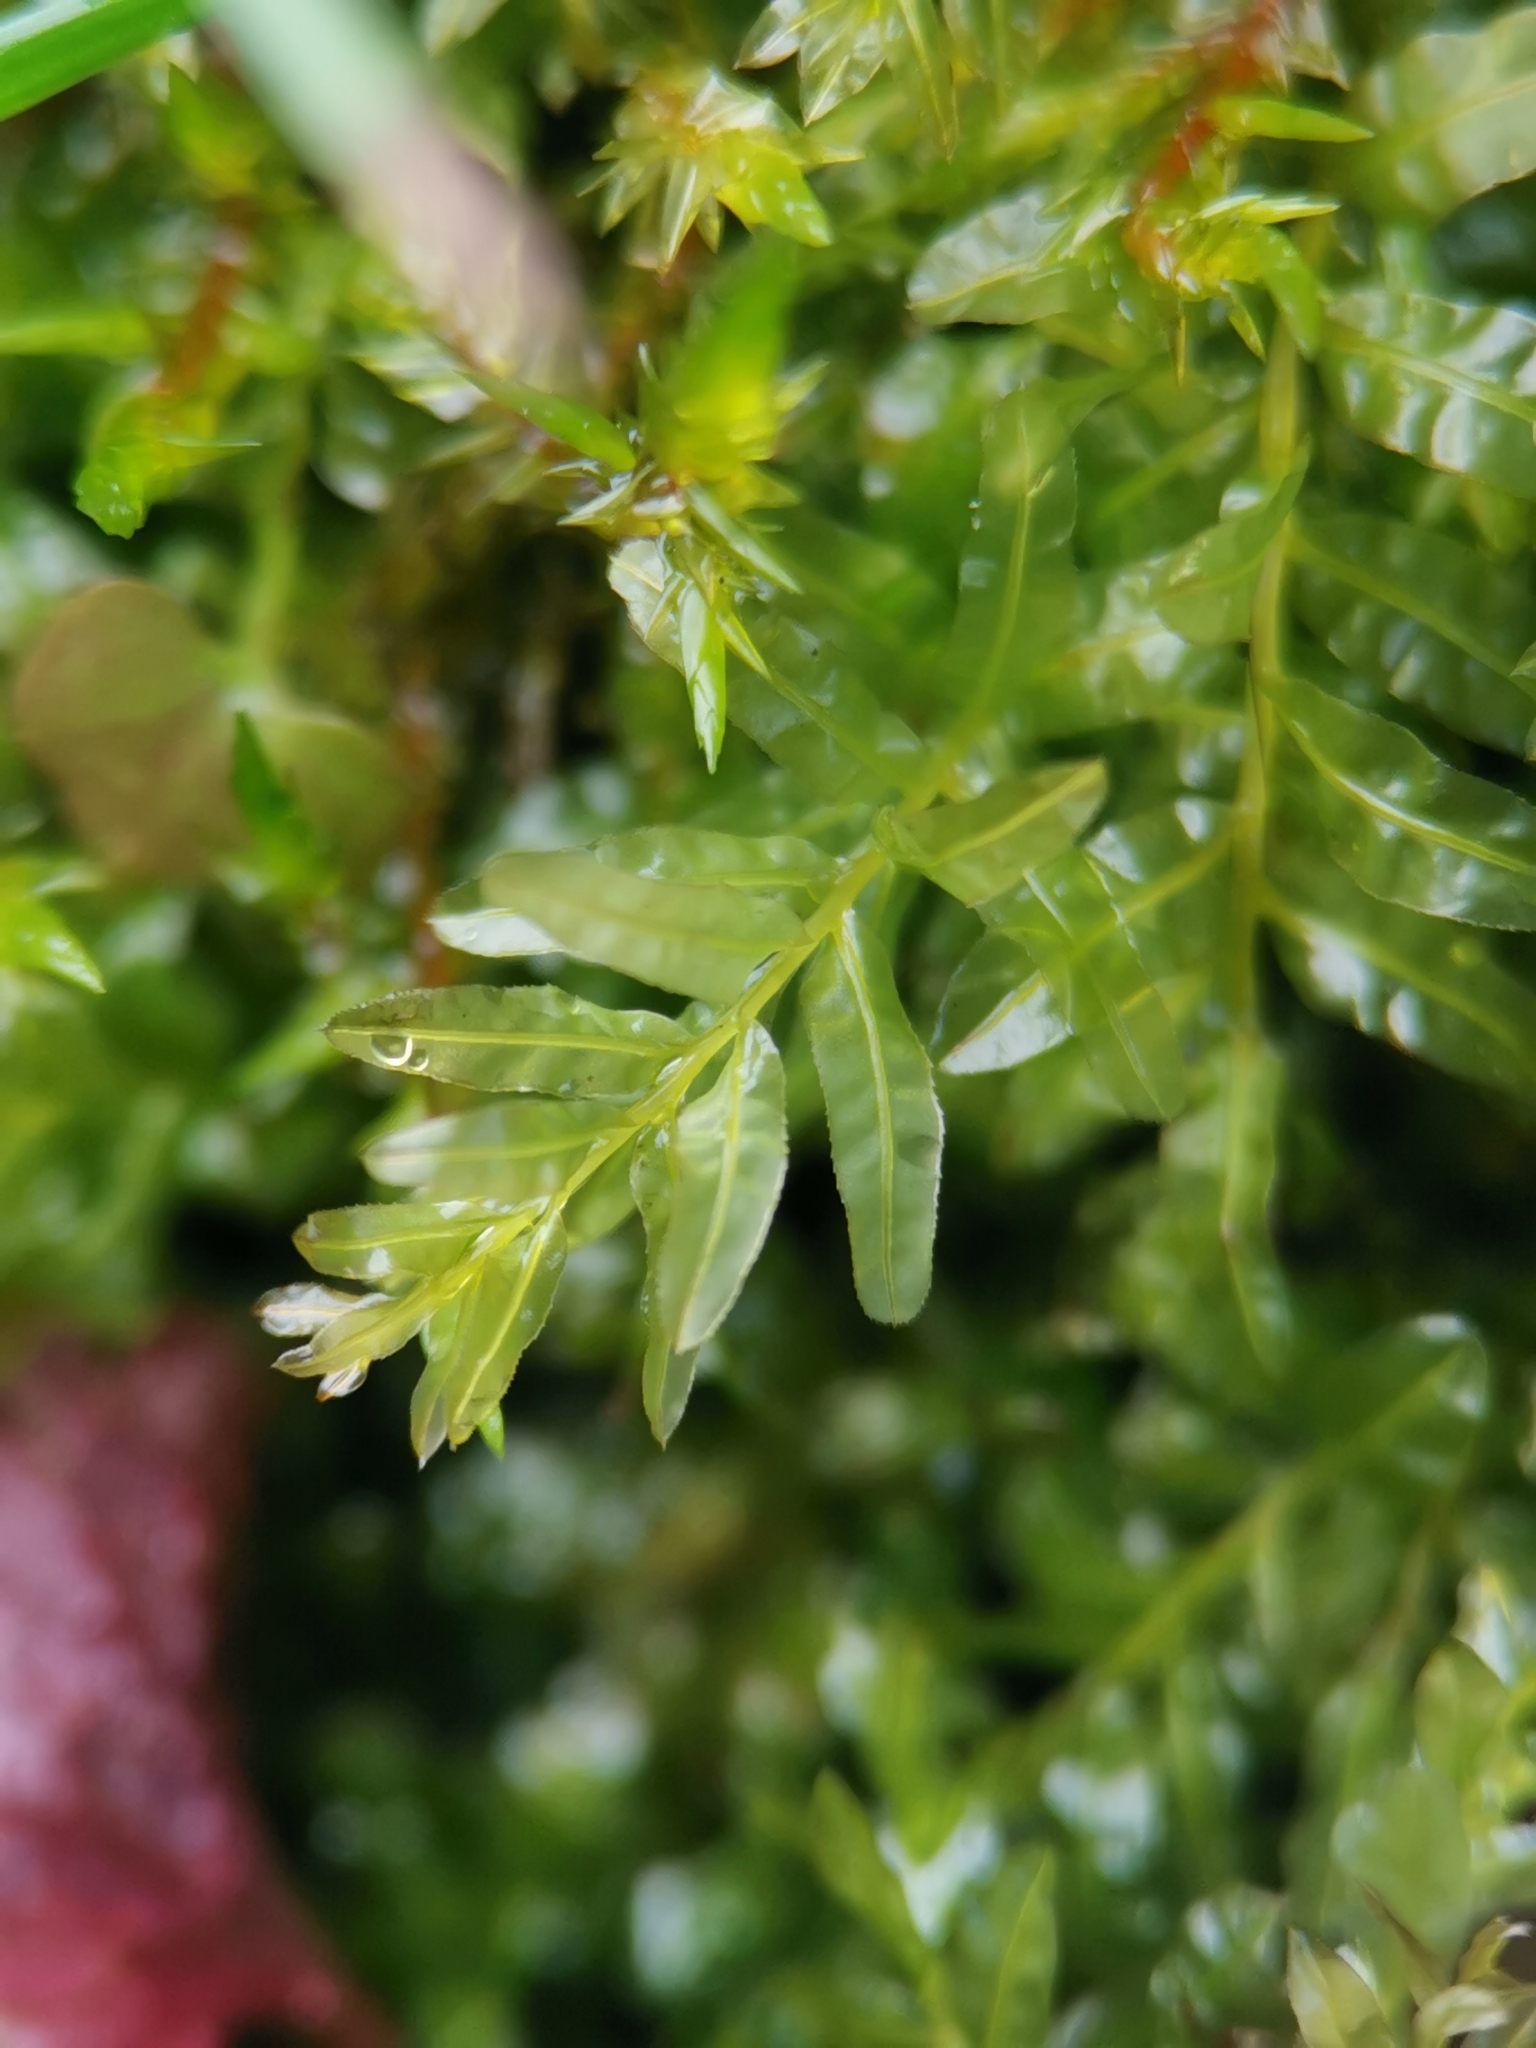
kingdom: Plantae
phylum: Bryophyta
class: Bryopsida
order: Bryales
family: Mniaceae
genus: Plagiomnium
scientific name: Plagiomnium undulatum
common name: Hart's-tongue thyme-moss
